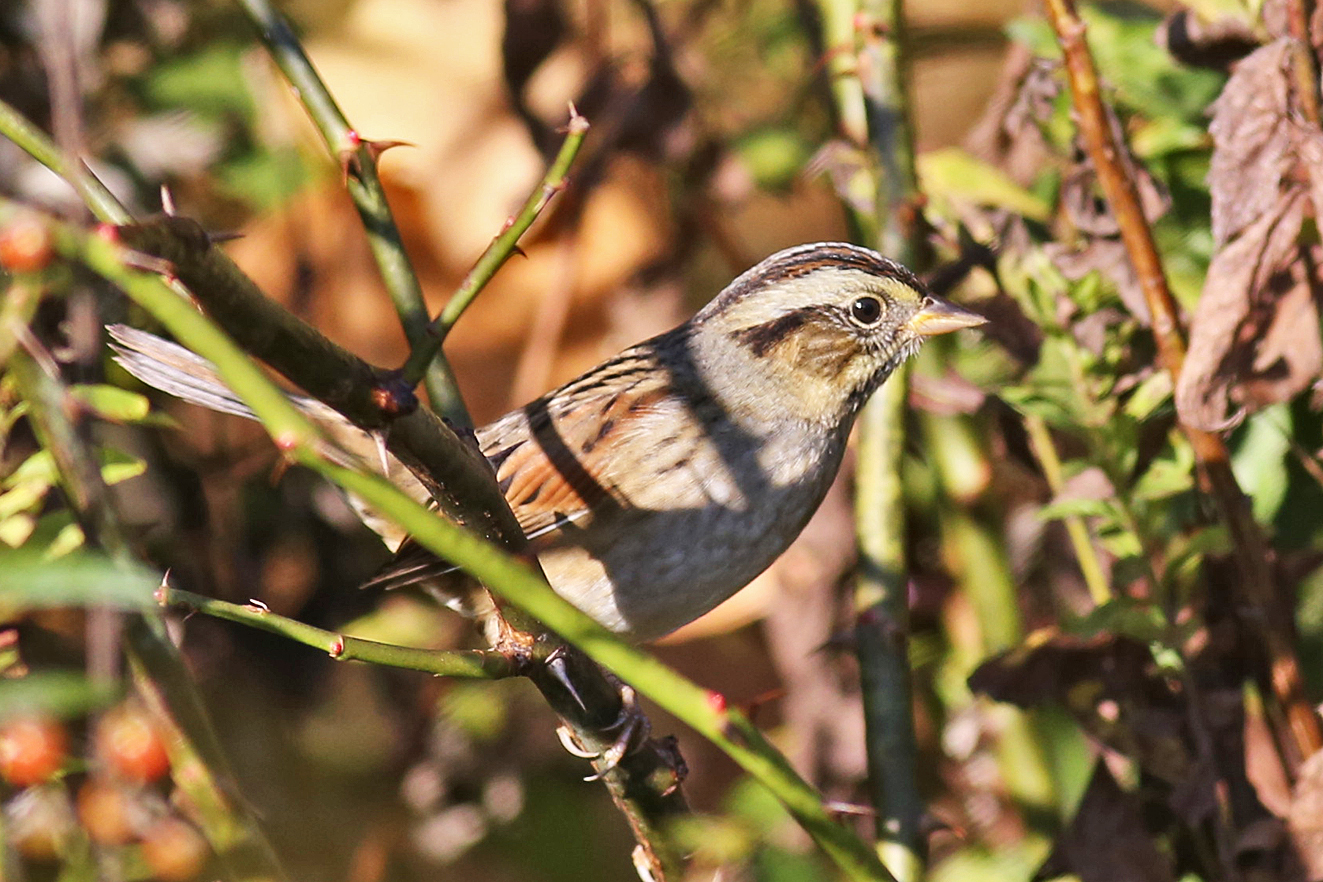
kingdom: Animalia
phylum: Chordata
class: Aves
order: Passeriformes
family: Passerellidae
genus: Melospiza
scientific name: Melospiza georgiana
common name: Swamp sparrow
